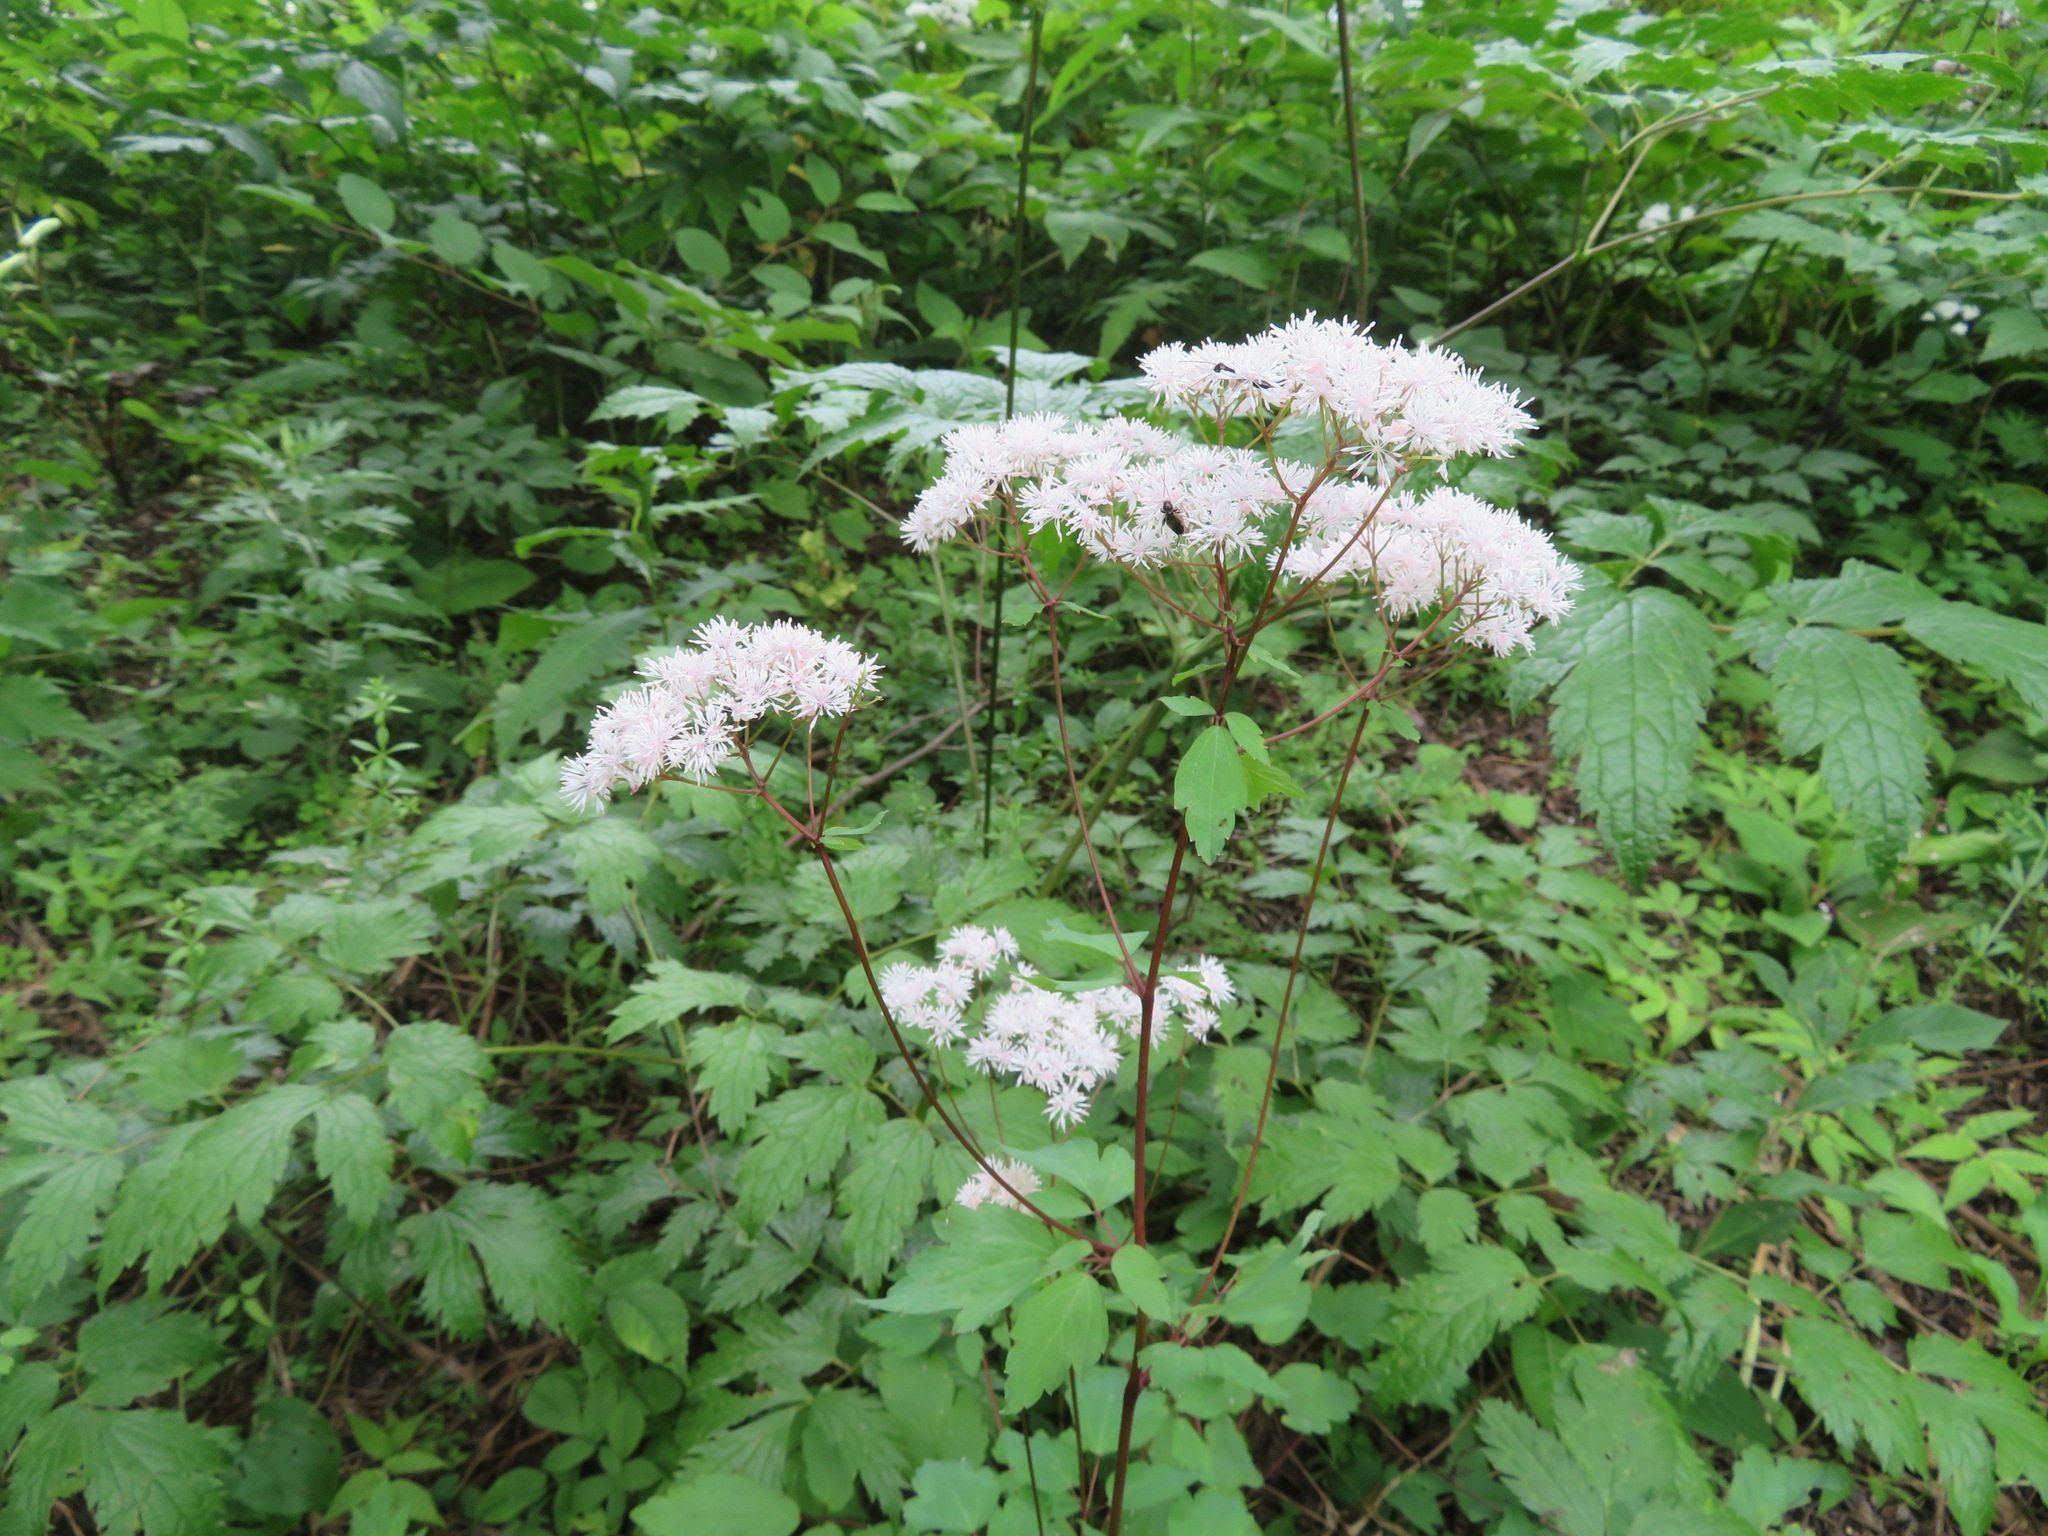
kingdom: Plantae
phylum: Tracheophyta
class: Magnoliopsida
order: Ranunculales
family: Ranunculaceae
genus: Thalictrum
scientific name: Thalictrum tuberiferum
